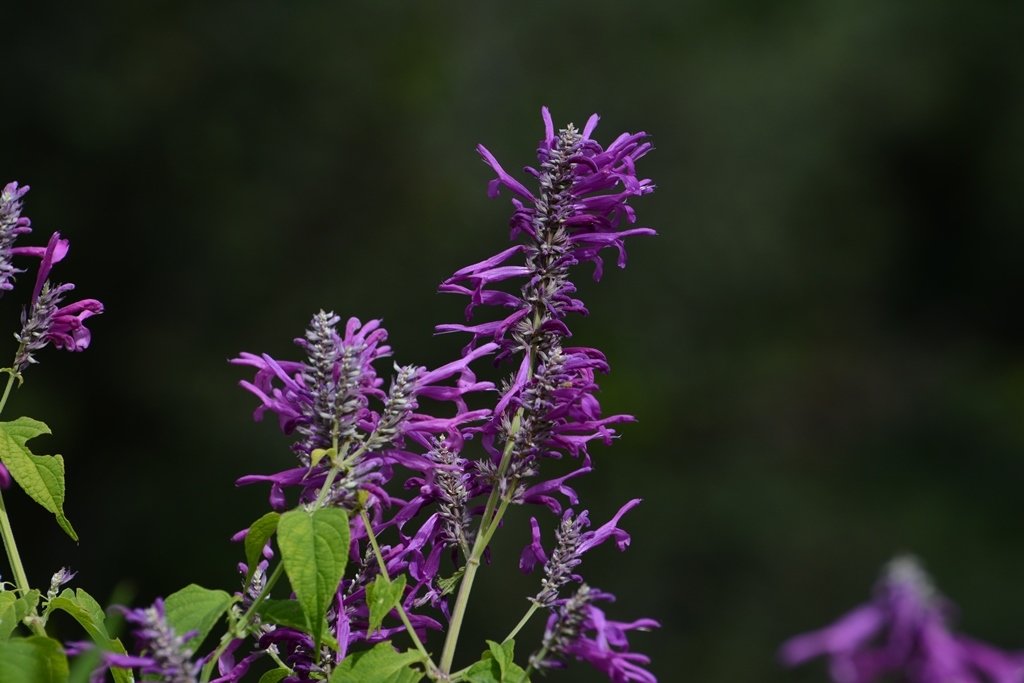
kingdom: Plantae
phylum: Tracheophyta
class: Magnoliopsida
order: Lamiales
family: Lamiaceae
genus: Salvia
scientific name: Salvia purpurea
